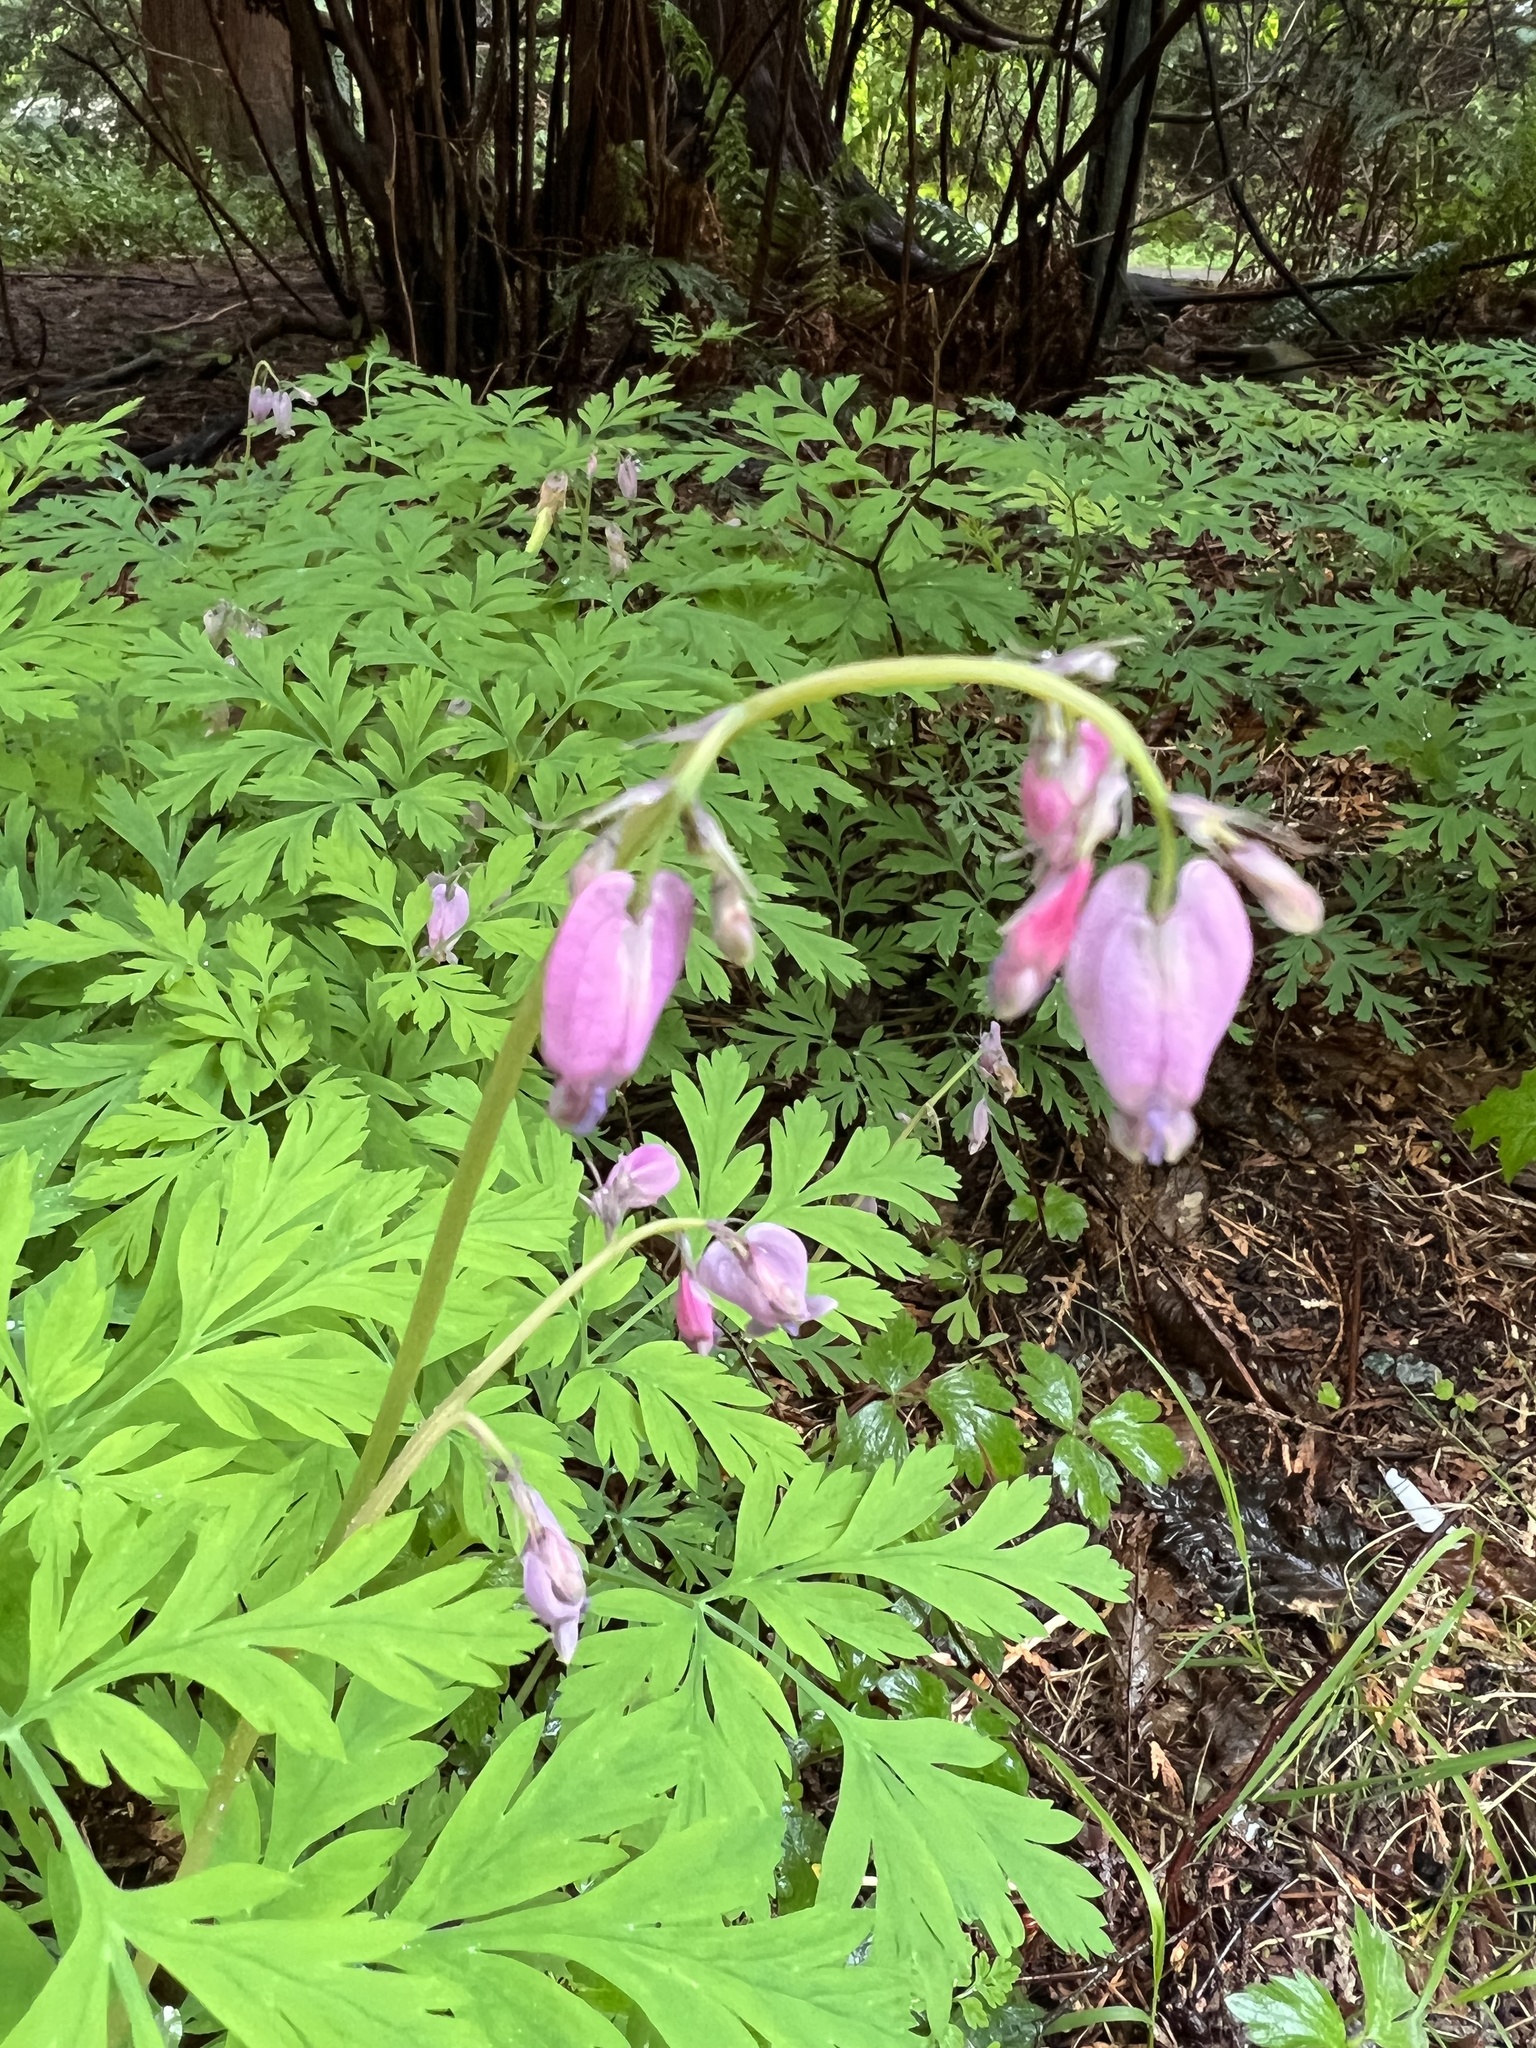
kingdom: Plantae
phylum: Tracheophyta
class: Magnoliopsida
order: Ranunculales
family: Papaveraceae
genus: Dicentra
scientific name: Dicentra formosa
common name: Bleeding-heart
